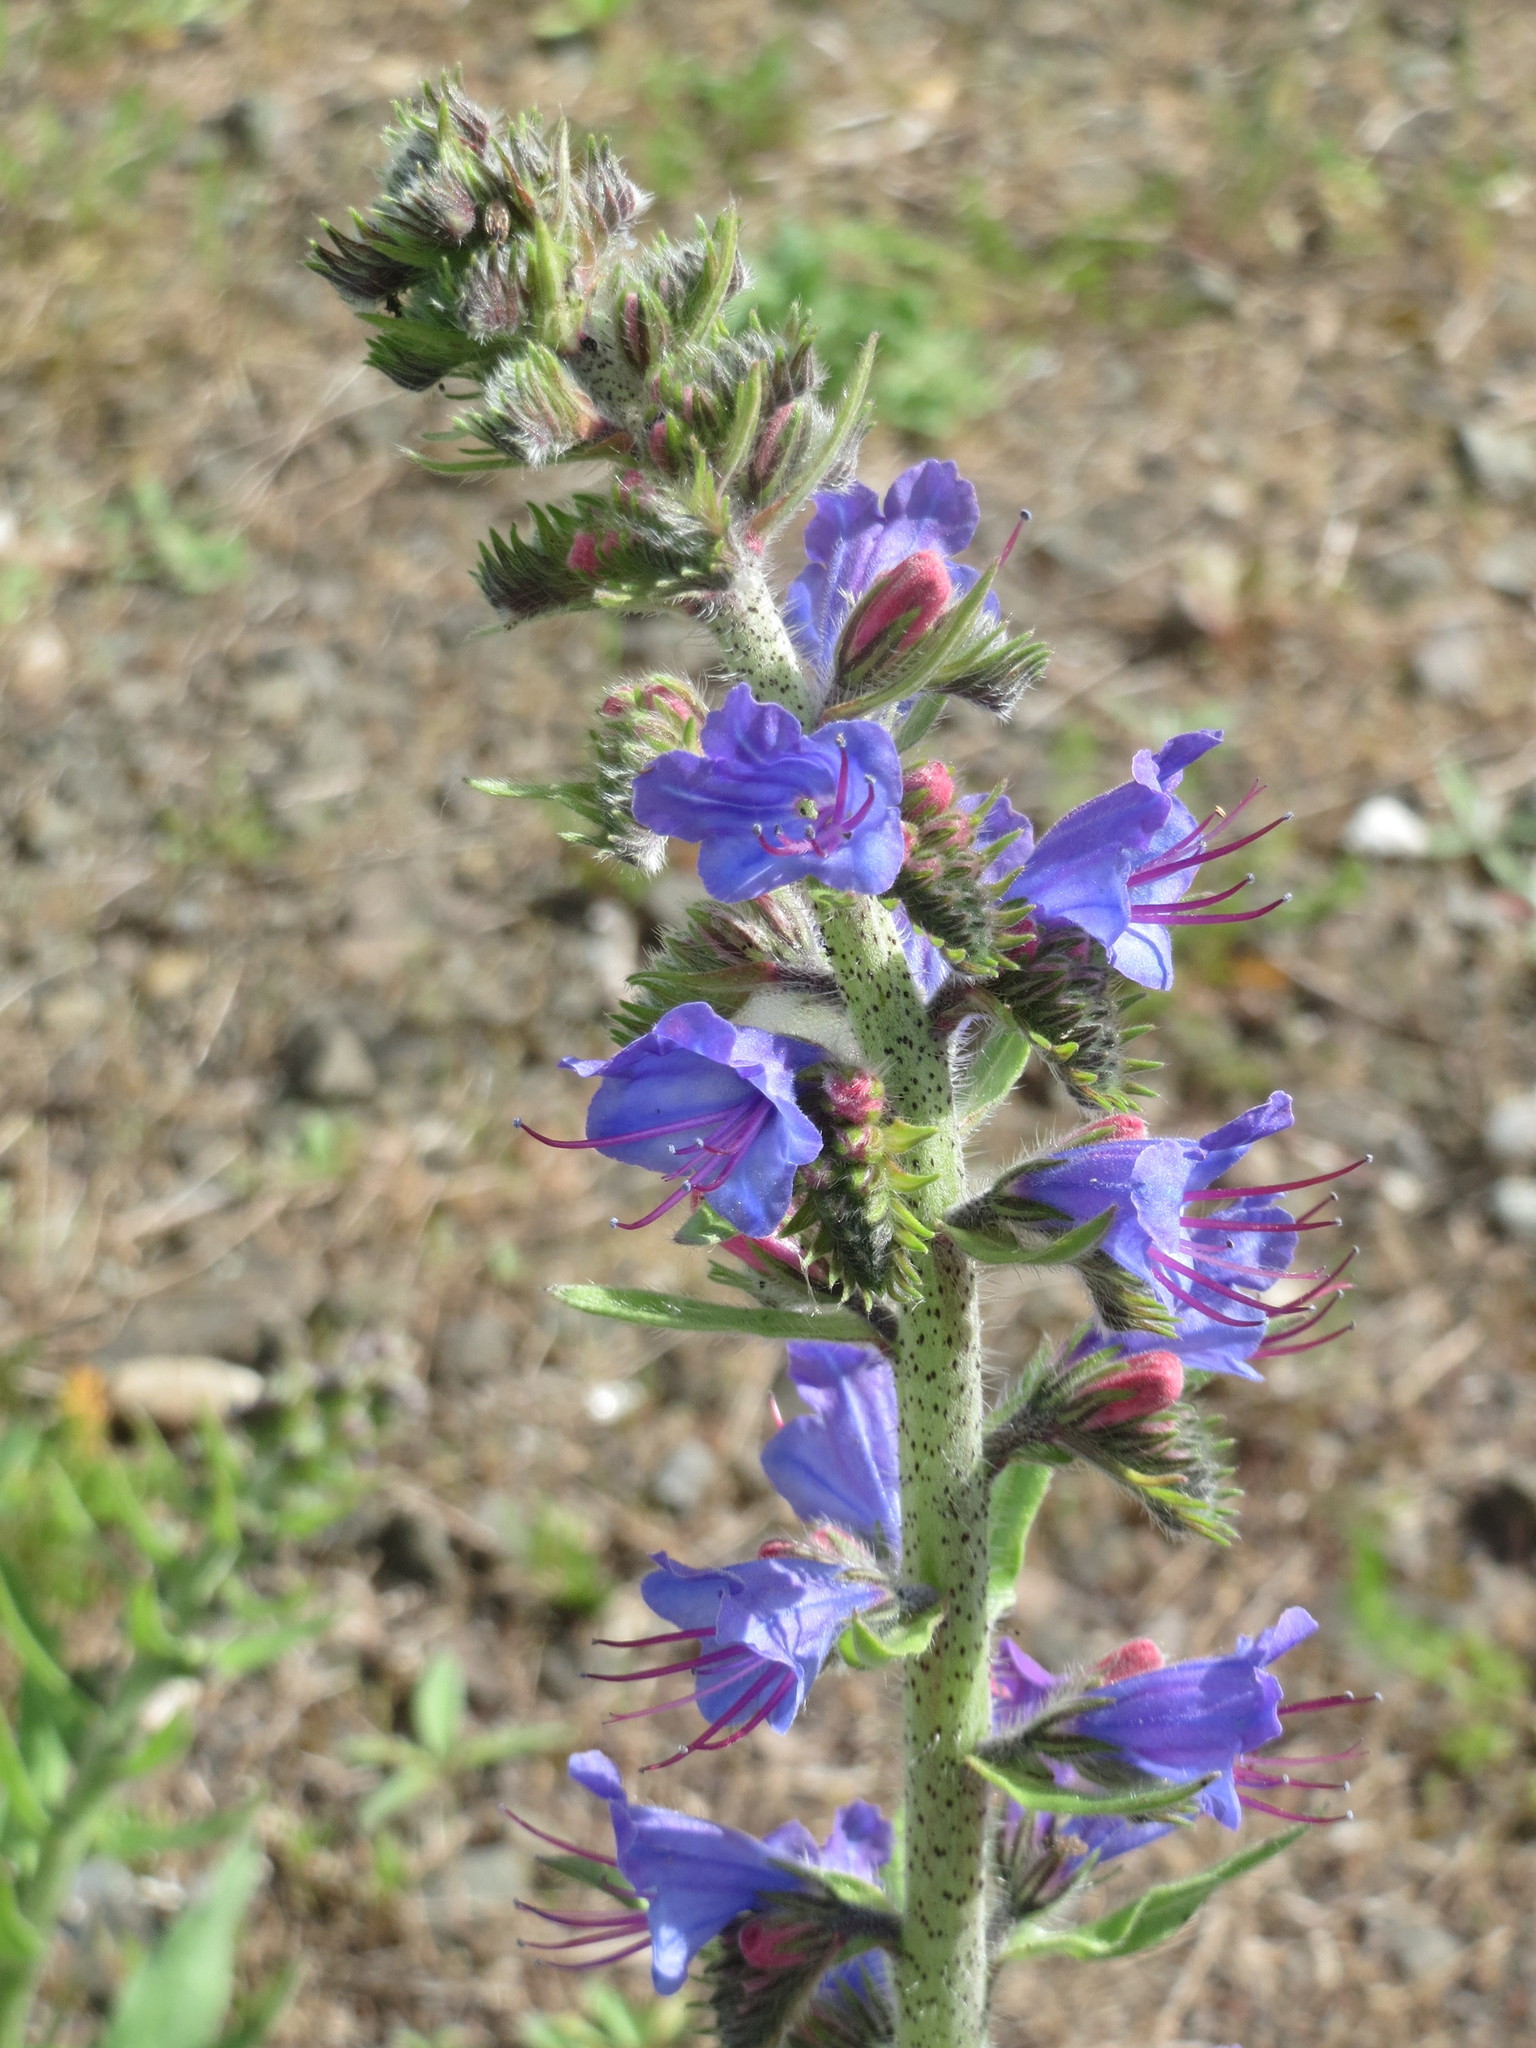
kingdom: Plantae
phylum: Tracheophyta
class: Magnoliopsida
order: Boraginales
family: Boraginaceae
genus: Echium
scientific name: Echium vulgare
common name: Common viper's bugloss
